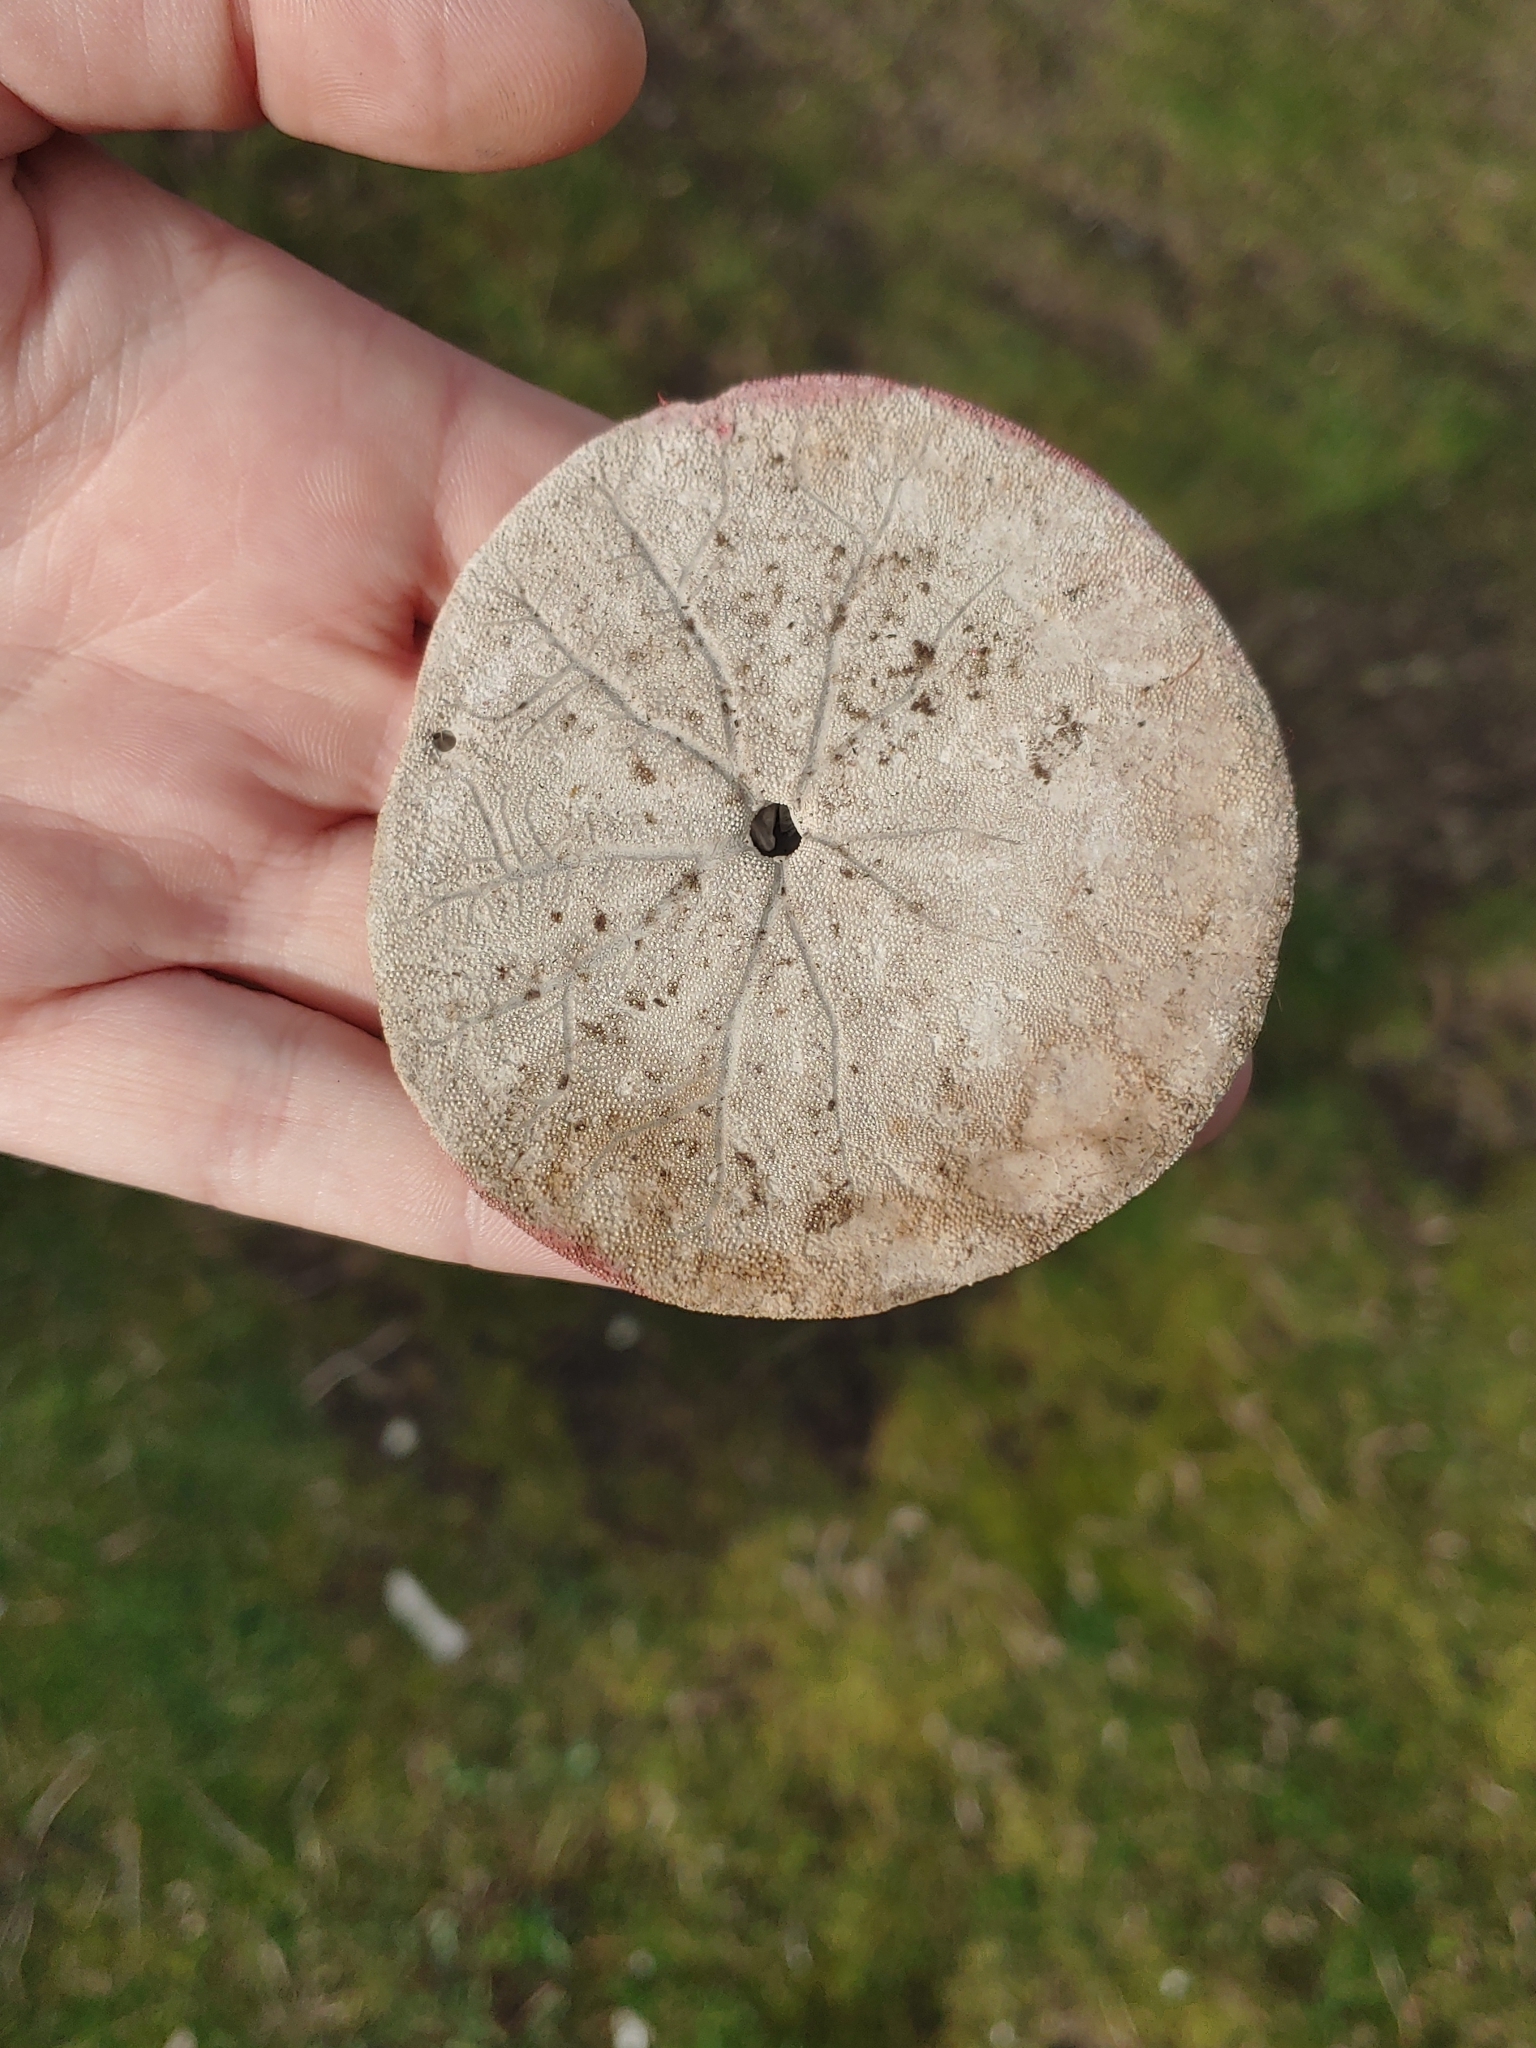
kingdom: Animalia
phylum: Echinodermata
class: Echinoidea
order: Echinolampadacea
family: Dendrasteridae
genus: Dendraster
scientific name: Dendraster excentricus
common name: Eccentric sand dollar sea urchin
